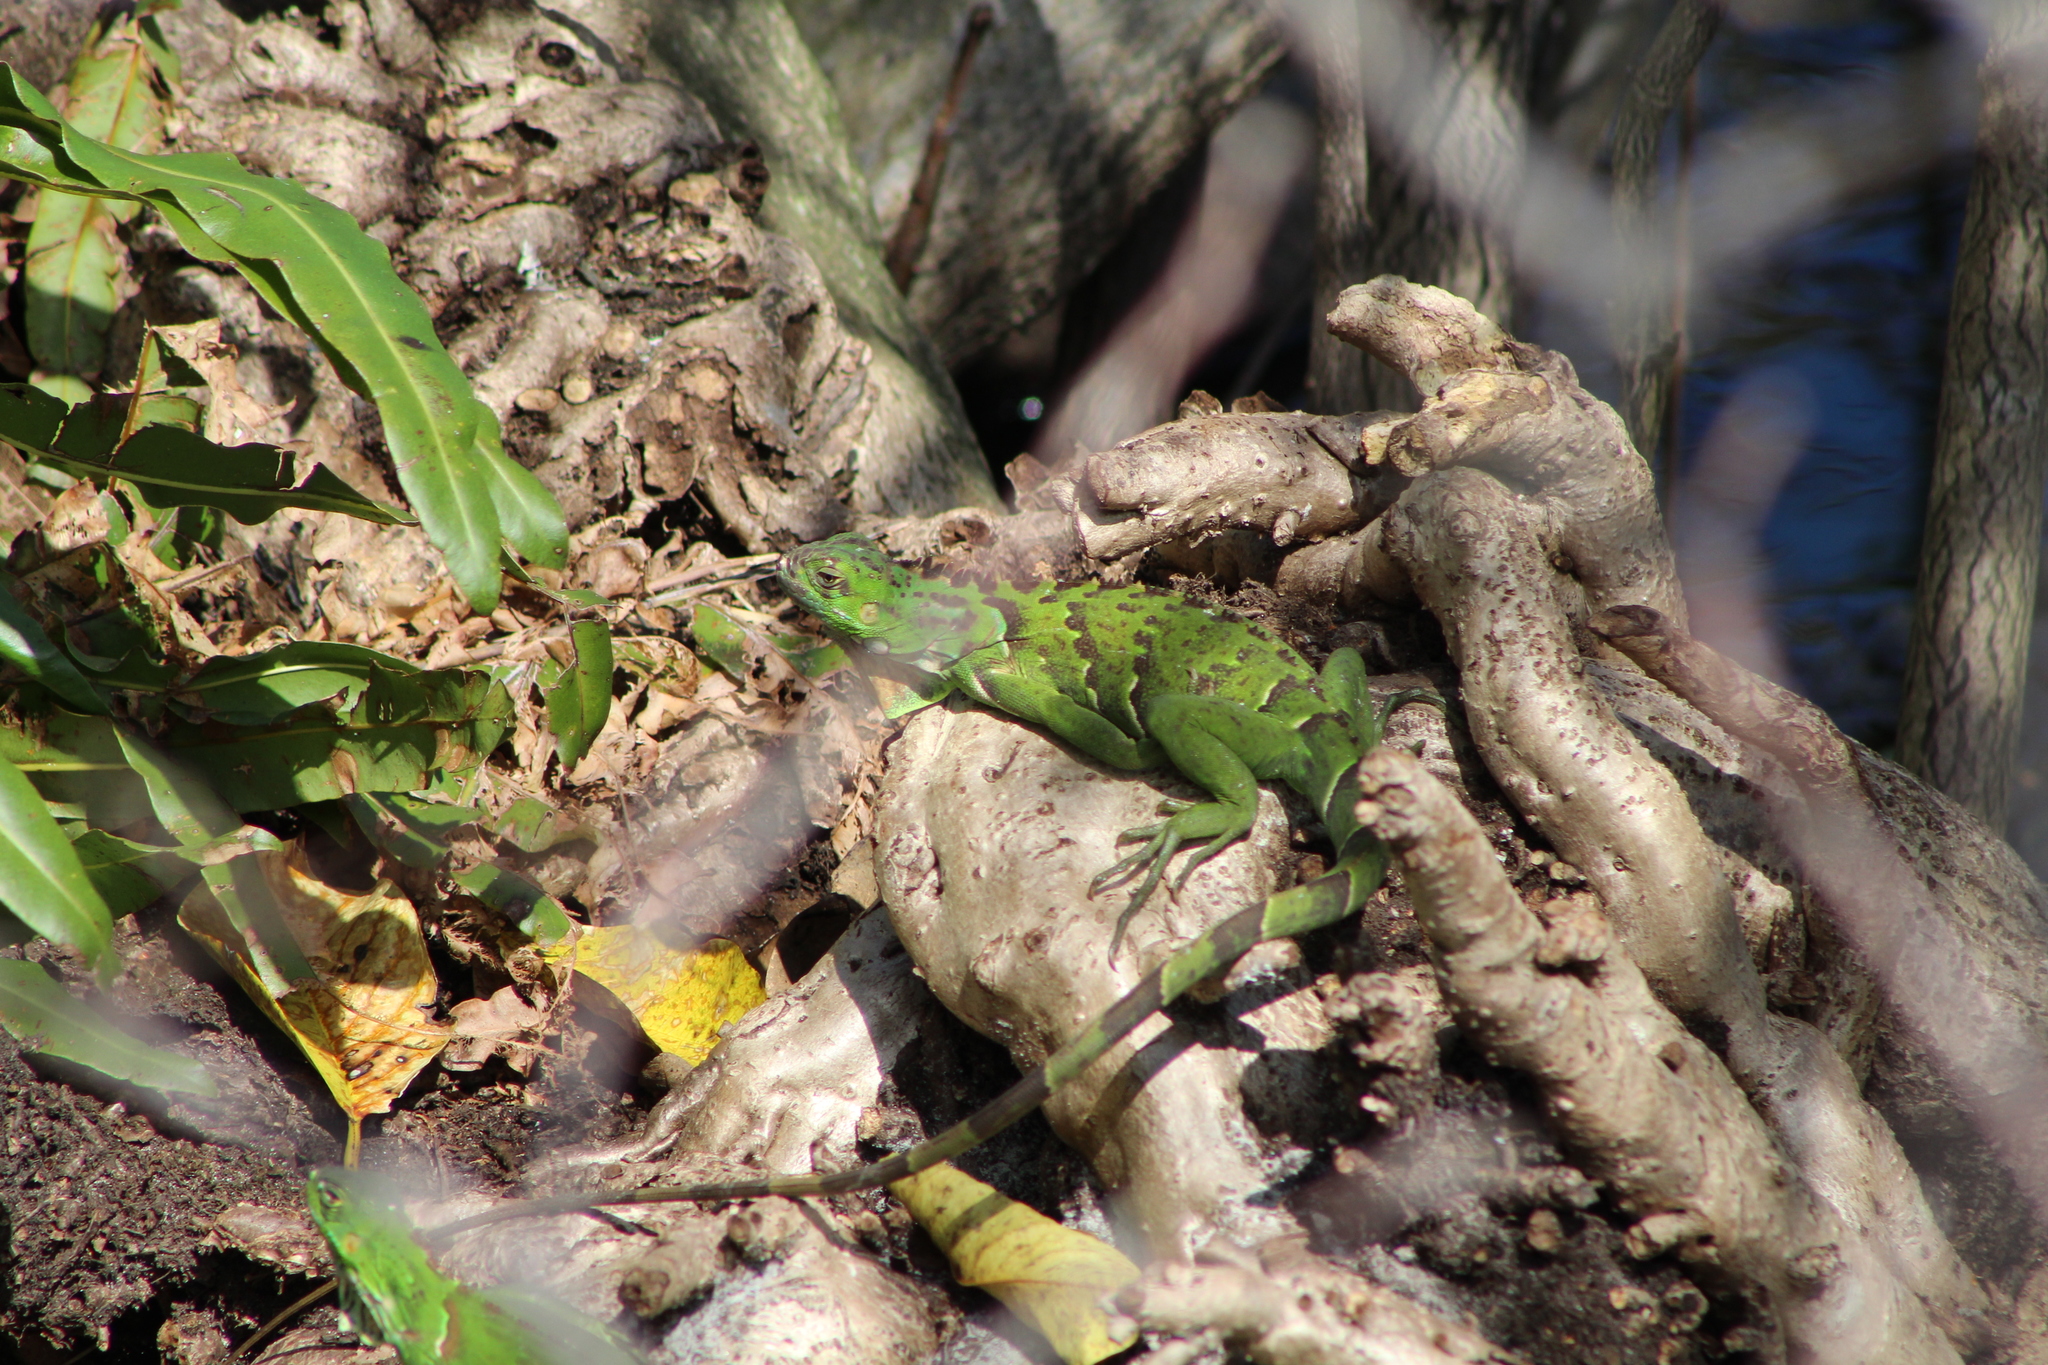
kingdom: Animalia
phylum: Chordata
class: Squamata
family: Iguanidae
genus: Iguana
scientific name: Iguana iguana
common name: Green iguana
